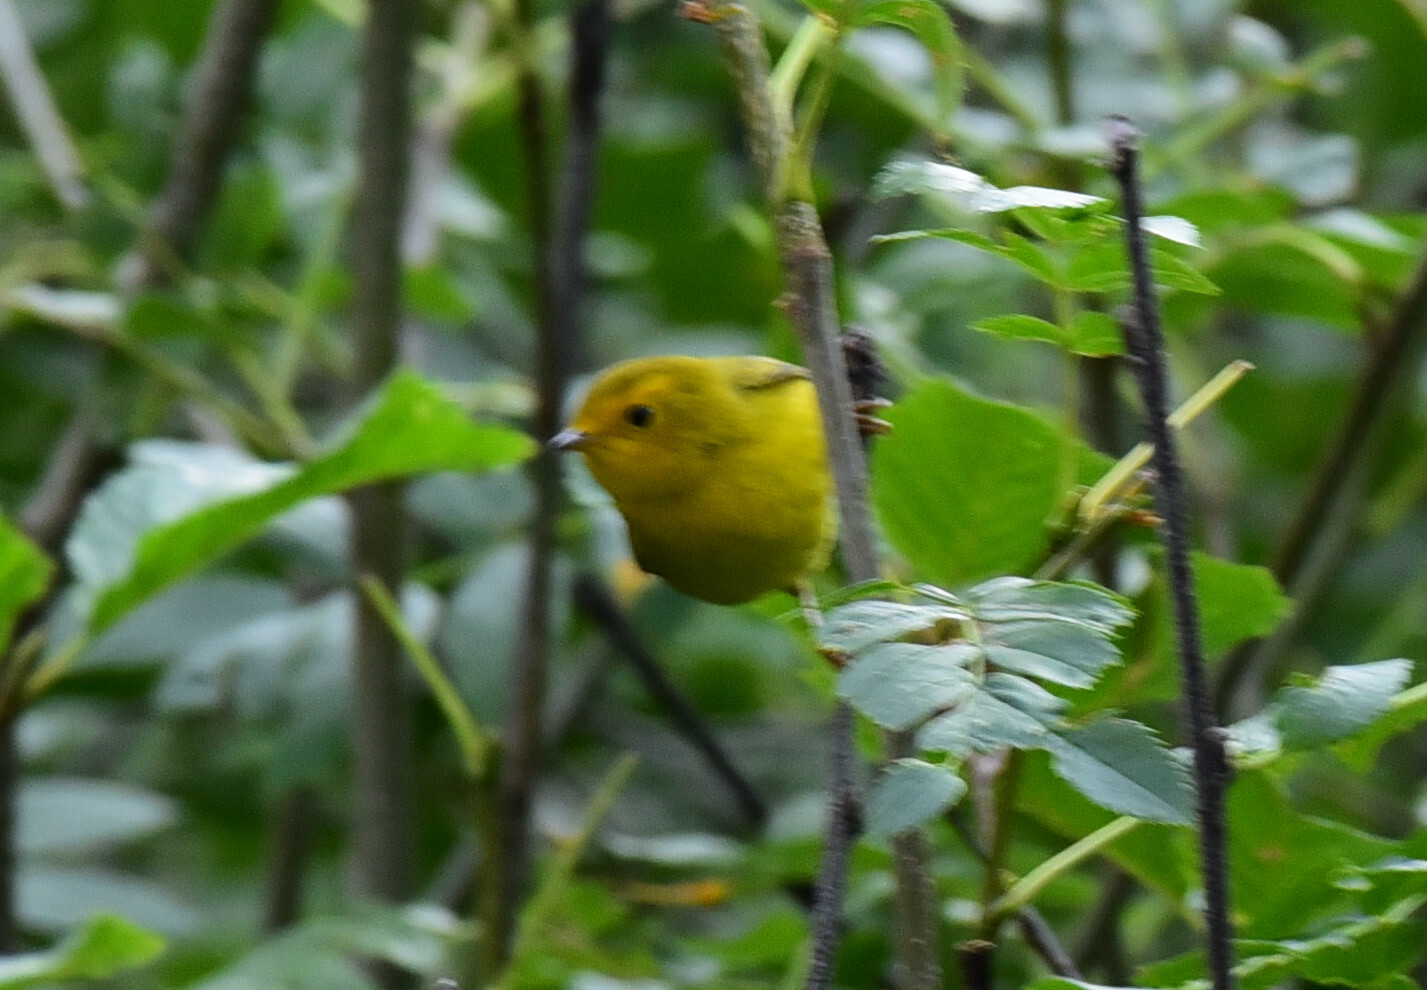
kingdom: Animalia
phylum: Chordata
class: Aves
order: Passeriformes
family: Parulidae
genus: Cardellina
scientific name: Cardellina pusilla
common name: Wilson's warbler
